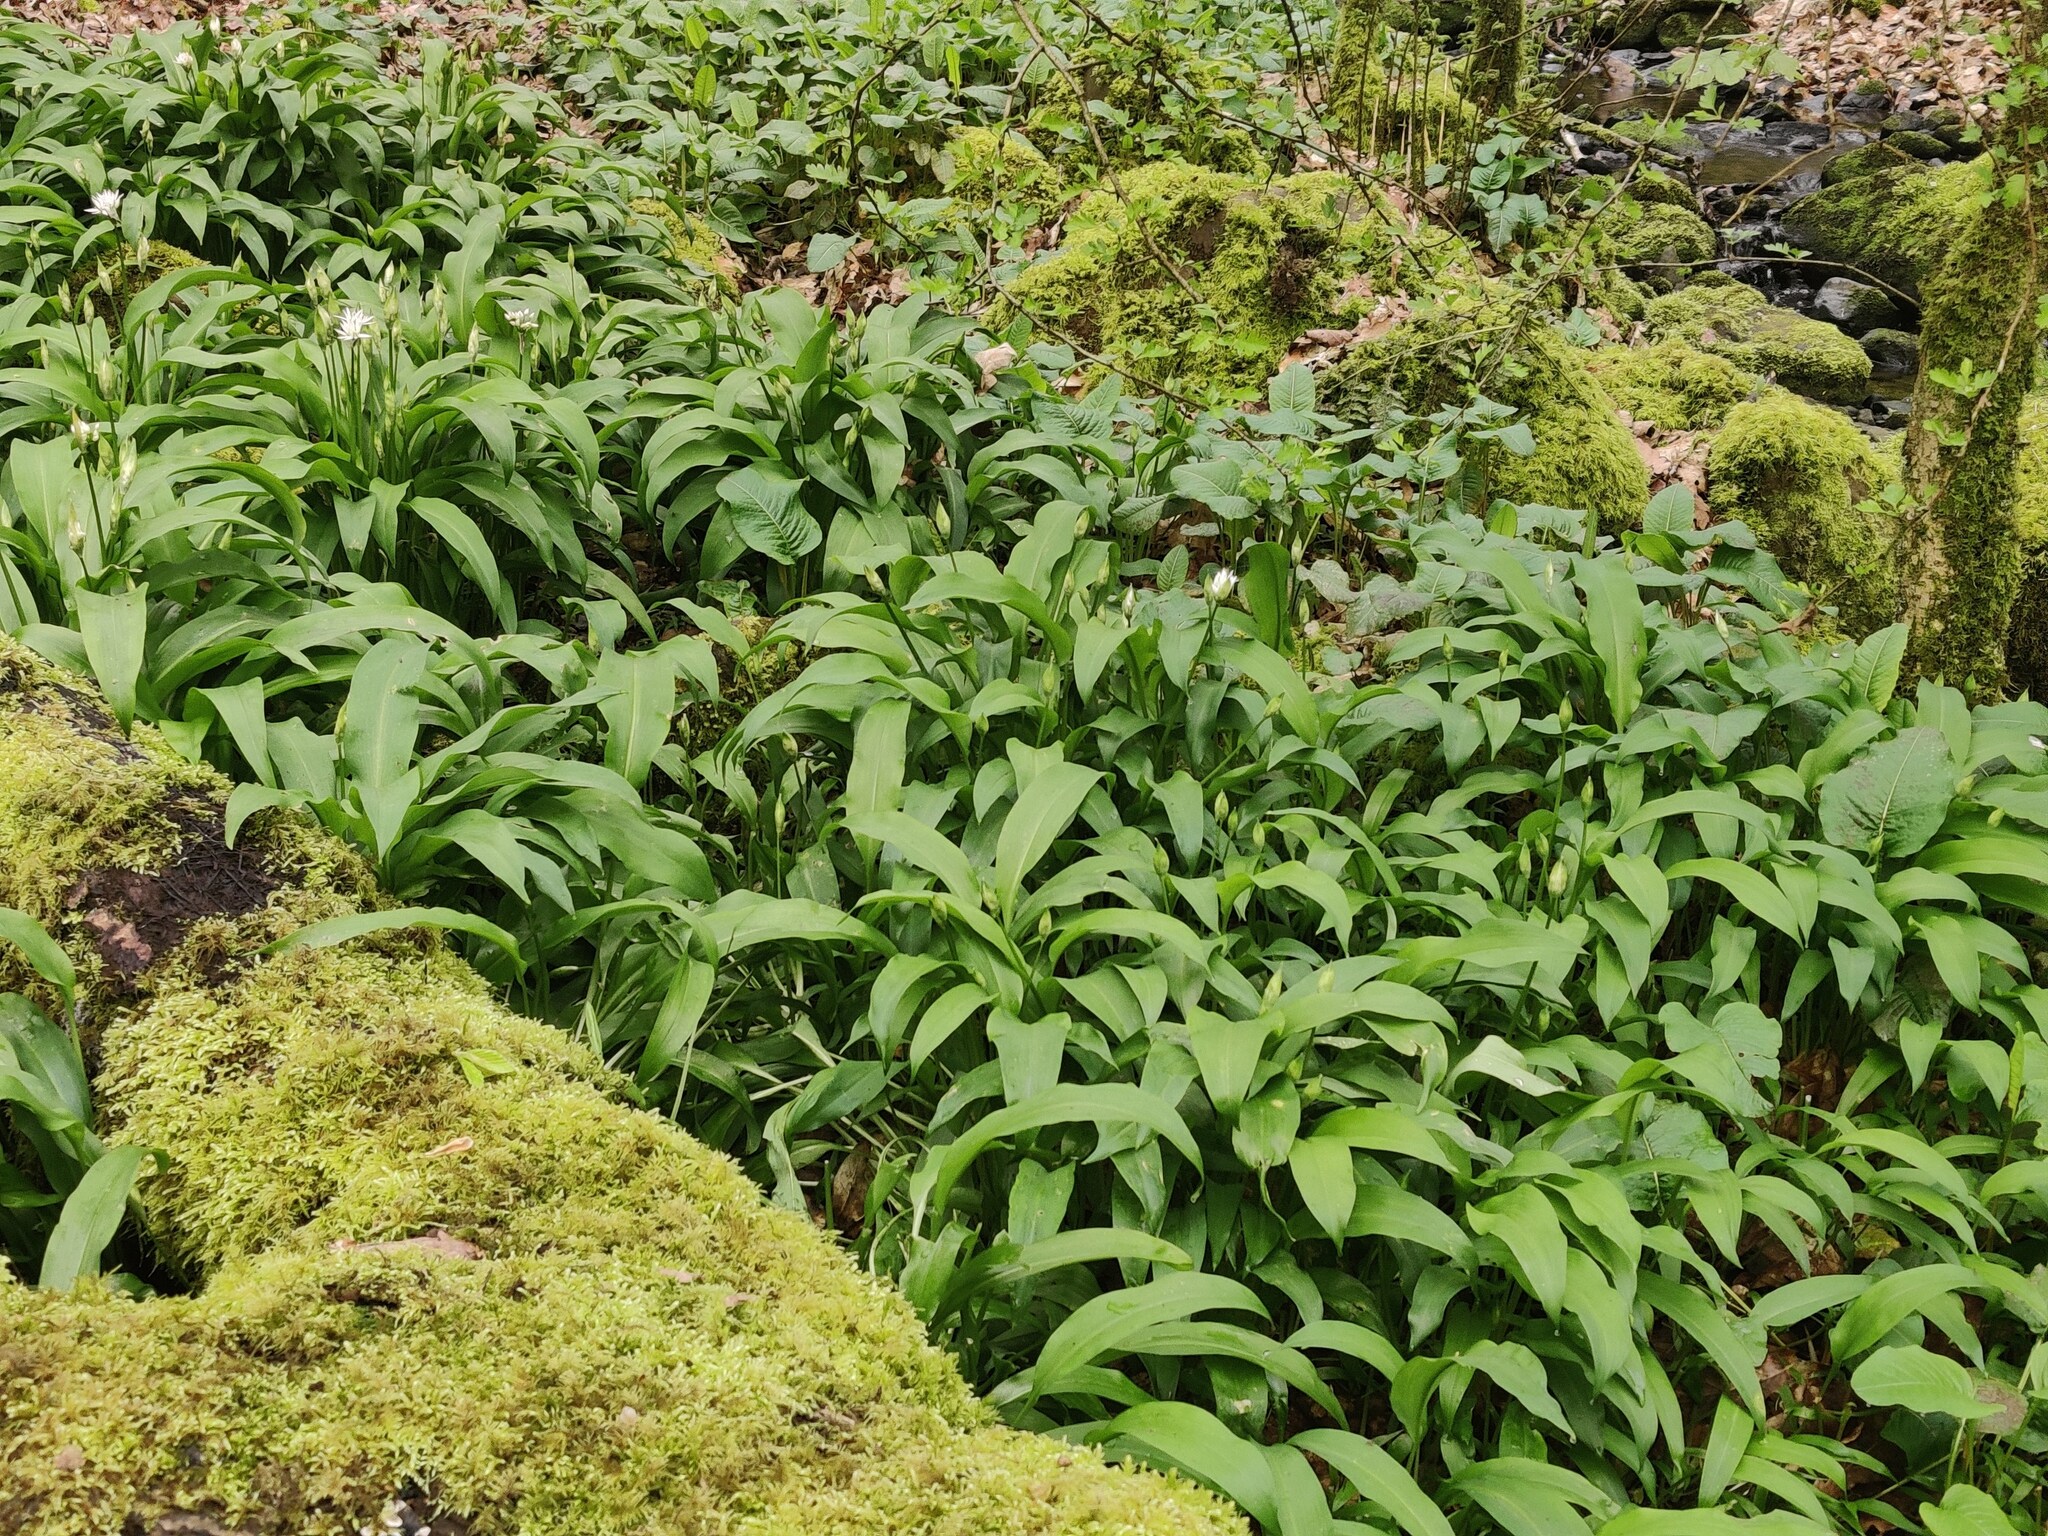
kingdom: Plantae
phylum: Tracheophyta
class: Liliopsida
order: Asparagales
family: Amaryllidaceae
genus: Allium
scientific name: Allium ursinum
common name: Ramsons
